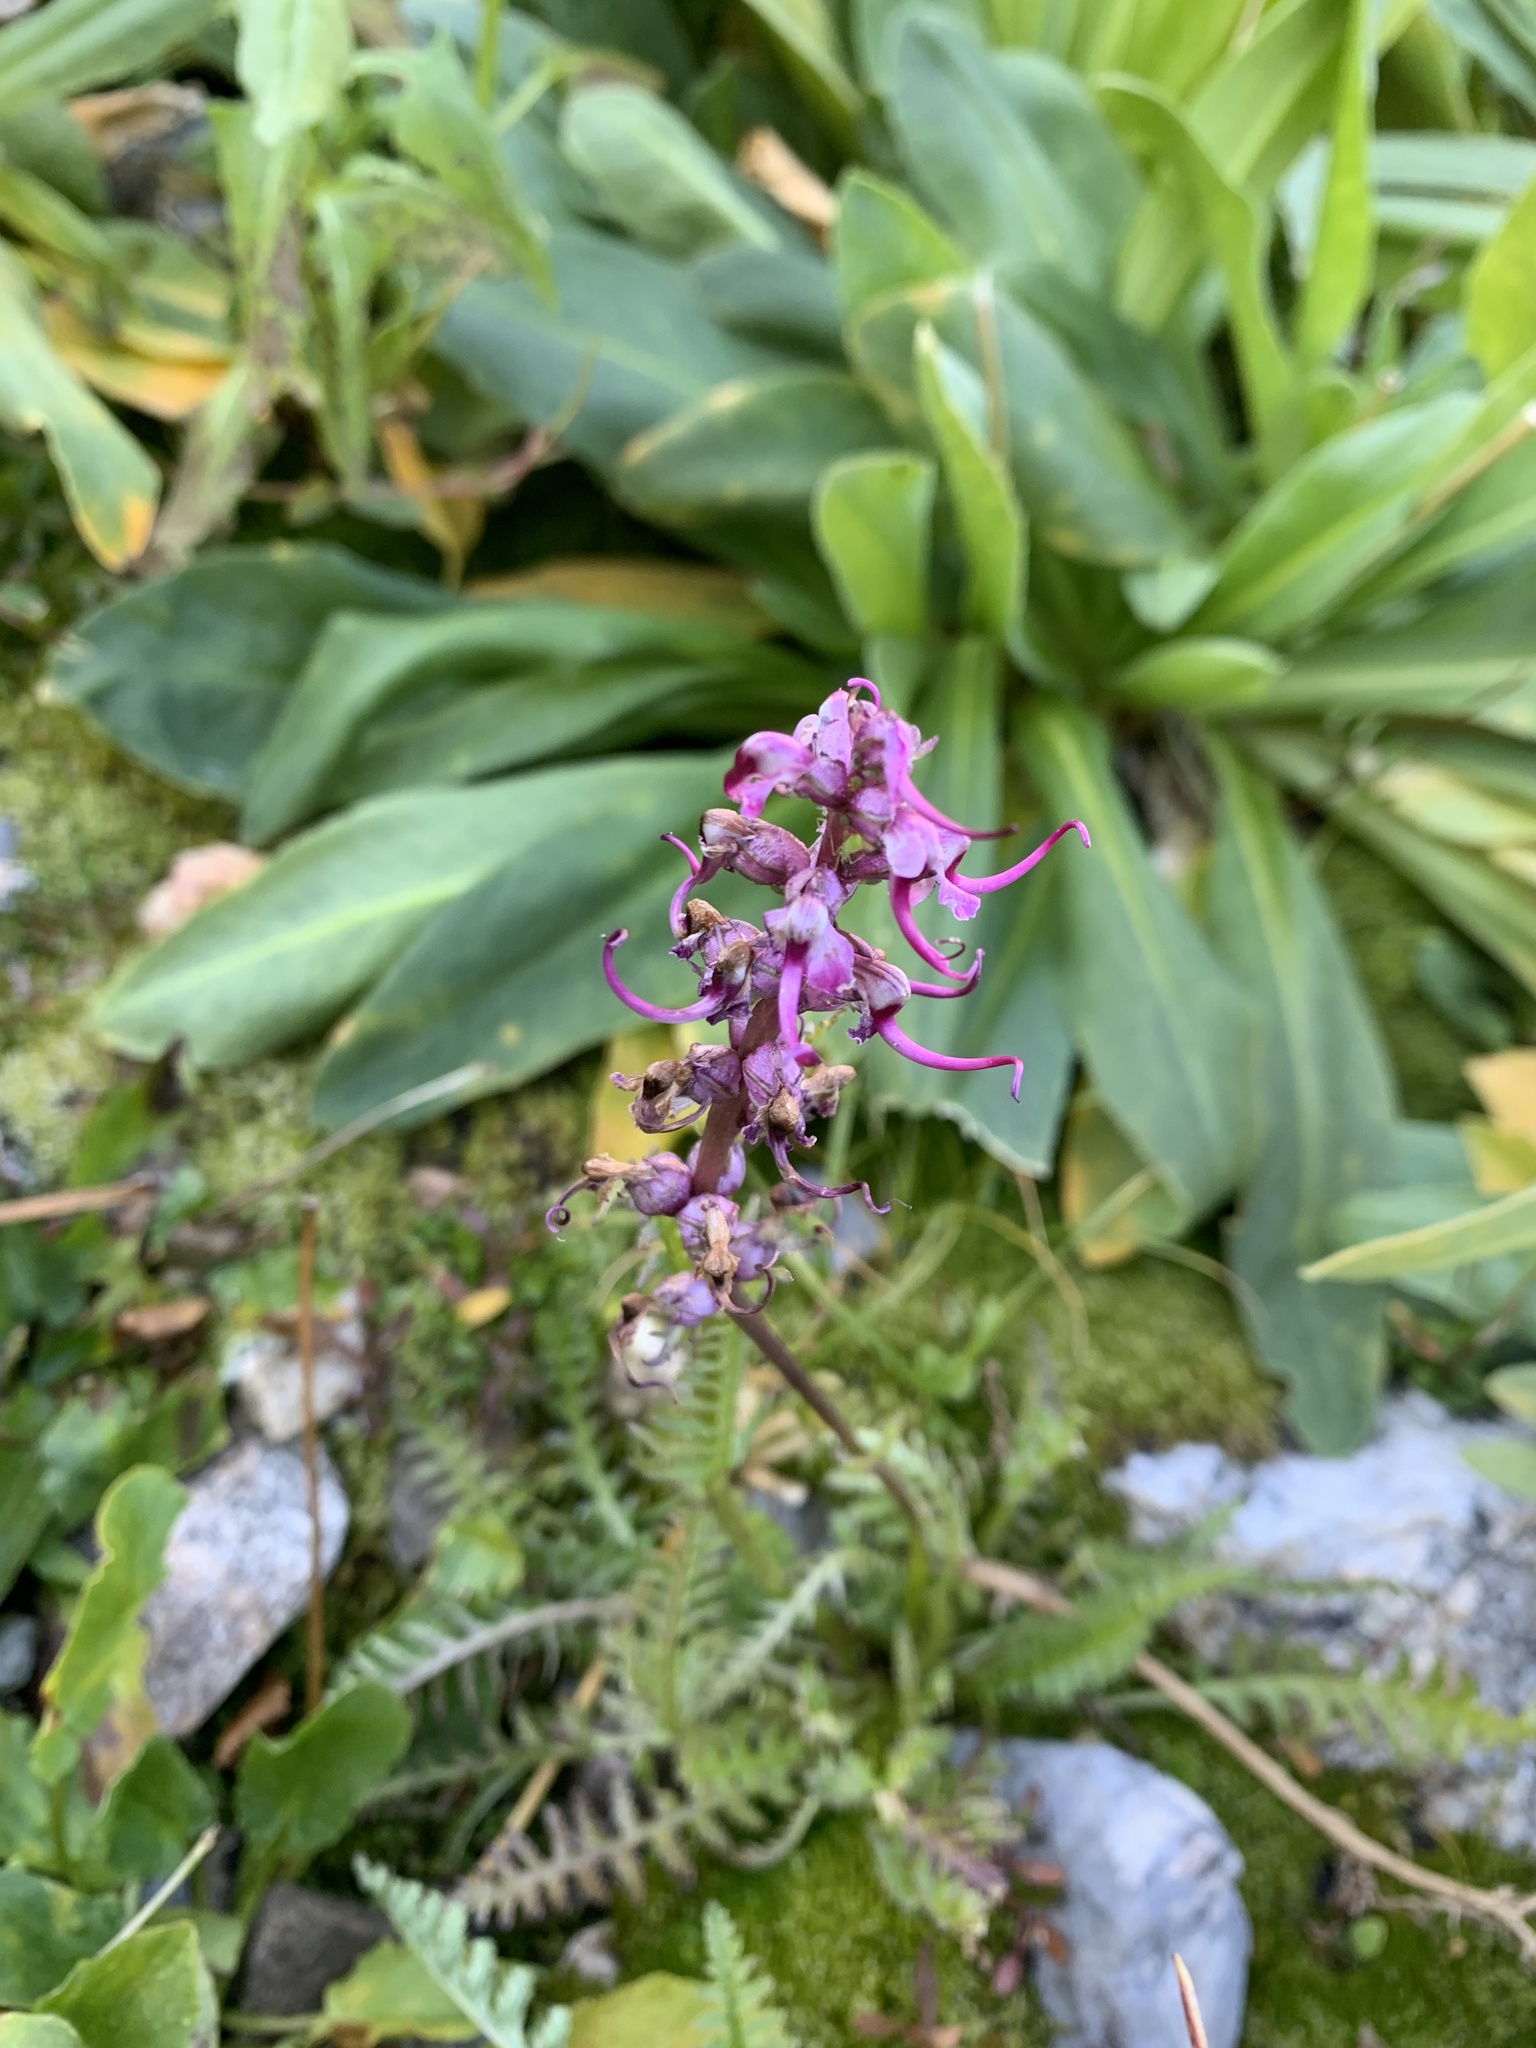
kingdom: Plantae
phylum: Tracheophyta
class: Magnoliopsida
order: Lamiales
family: Orobanchaceae
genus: Pedicularis
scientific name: Pedicularis groenlandica
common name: Elephant's-head
